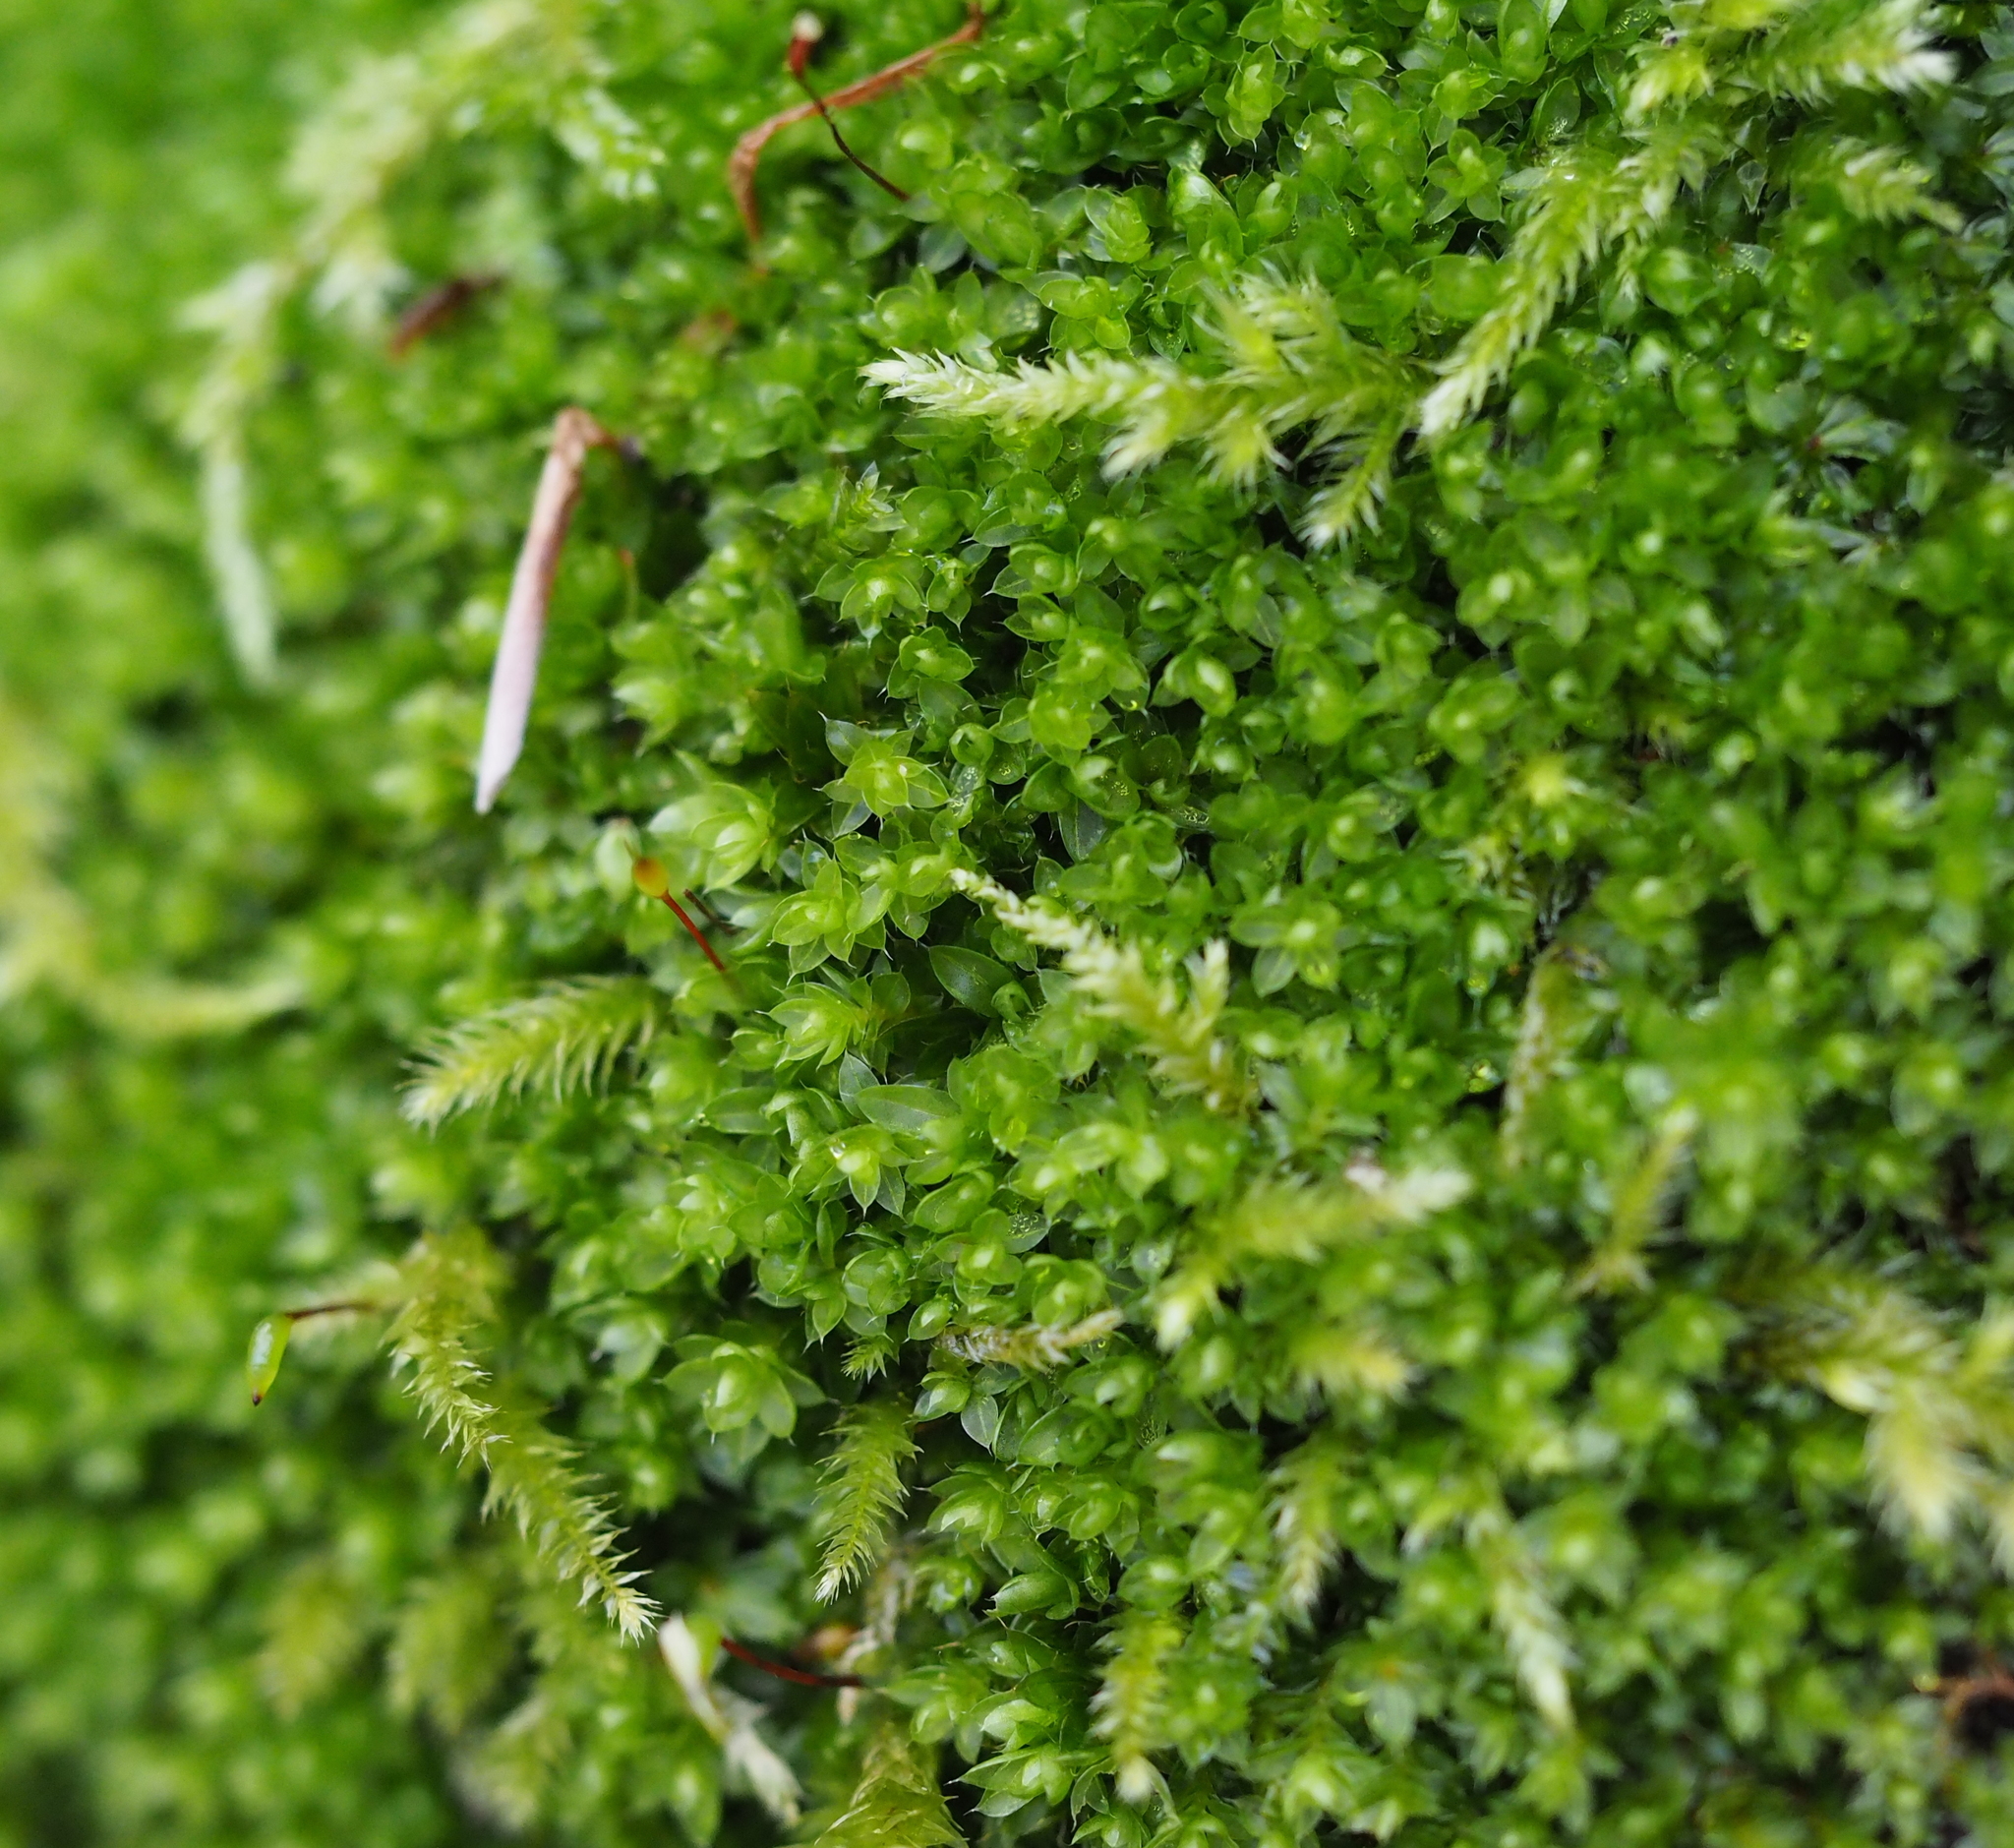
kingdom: Plantae
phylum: Bryophyta
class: Bryopsida
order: Bryales
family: Bryaceae
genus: Rosulabryum
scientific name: Rosulabryum capillare
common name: Capillary thread-moss
